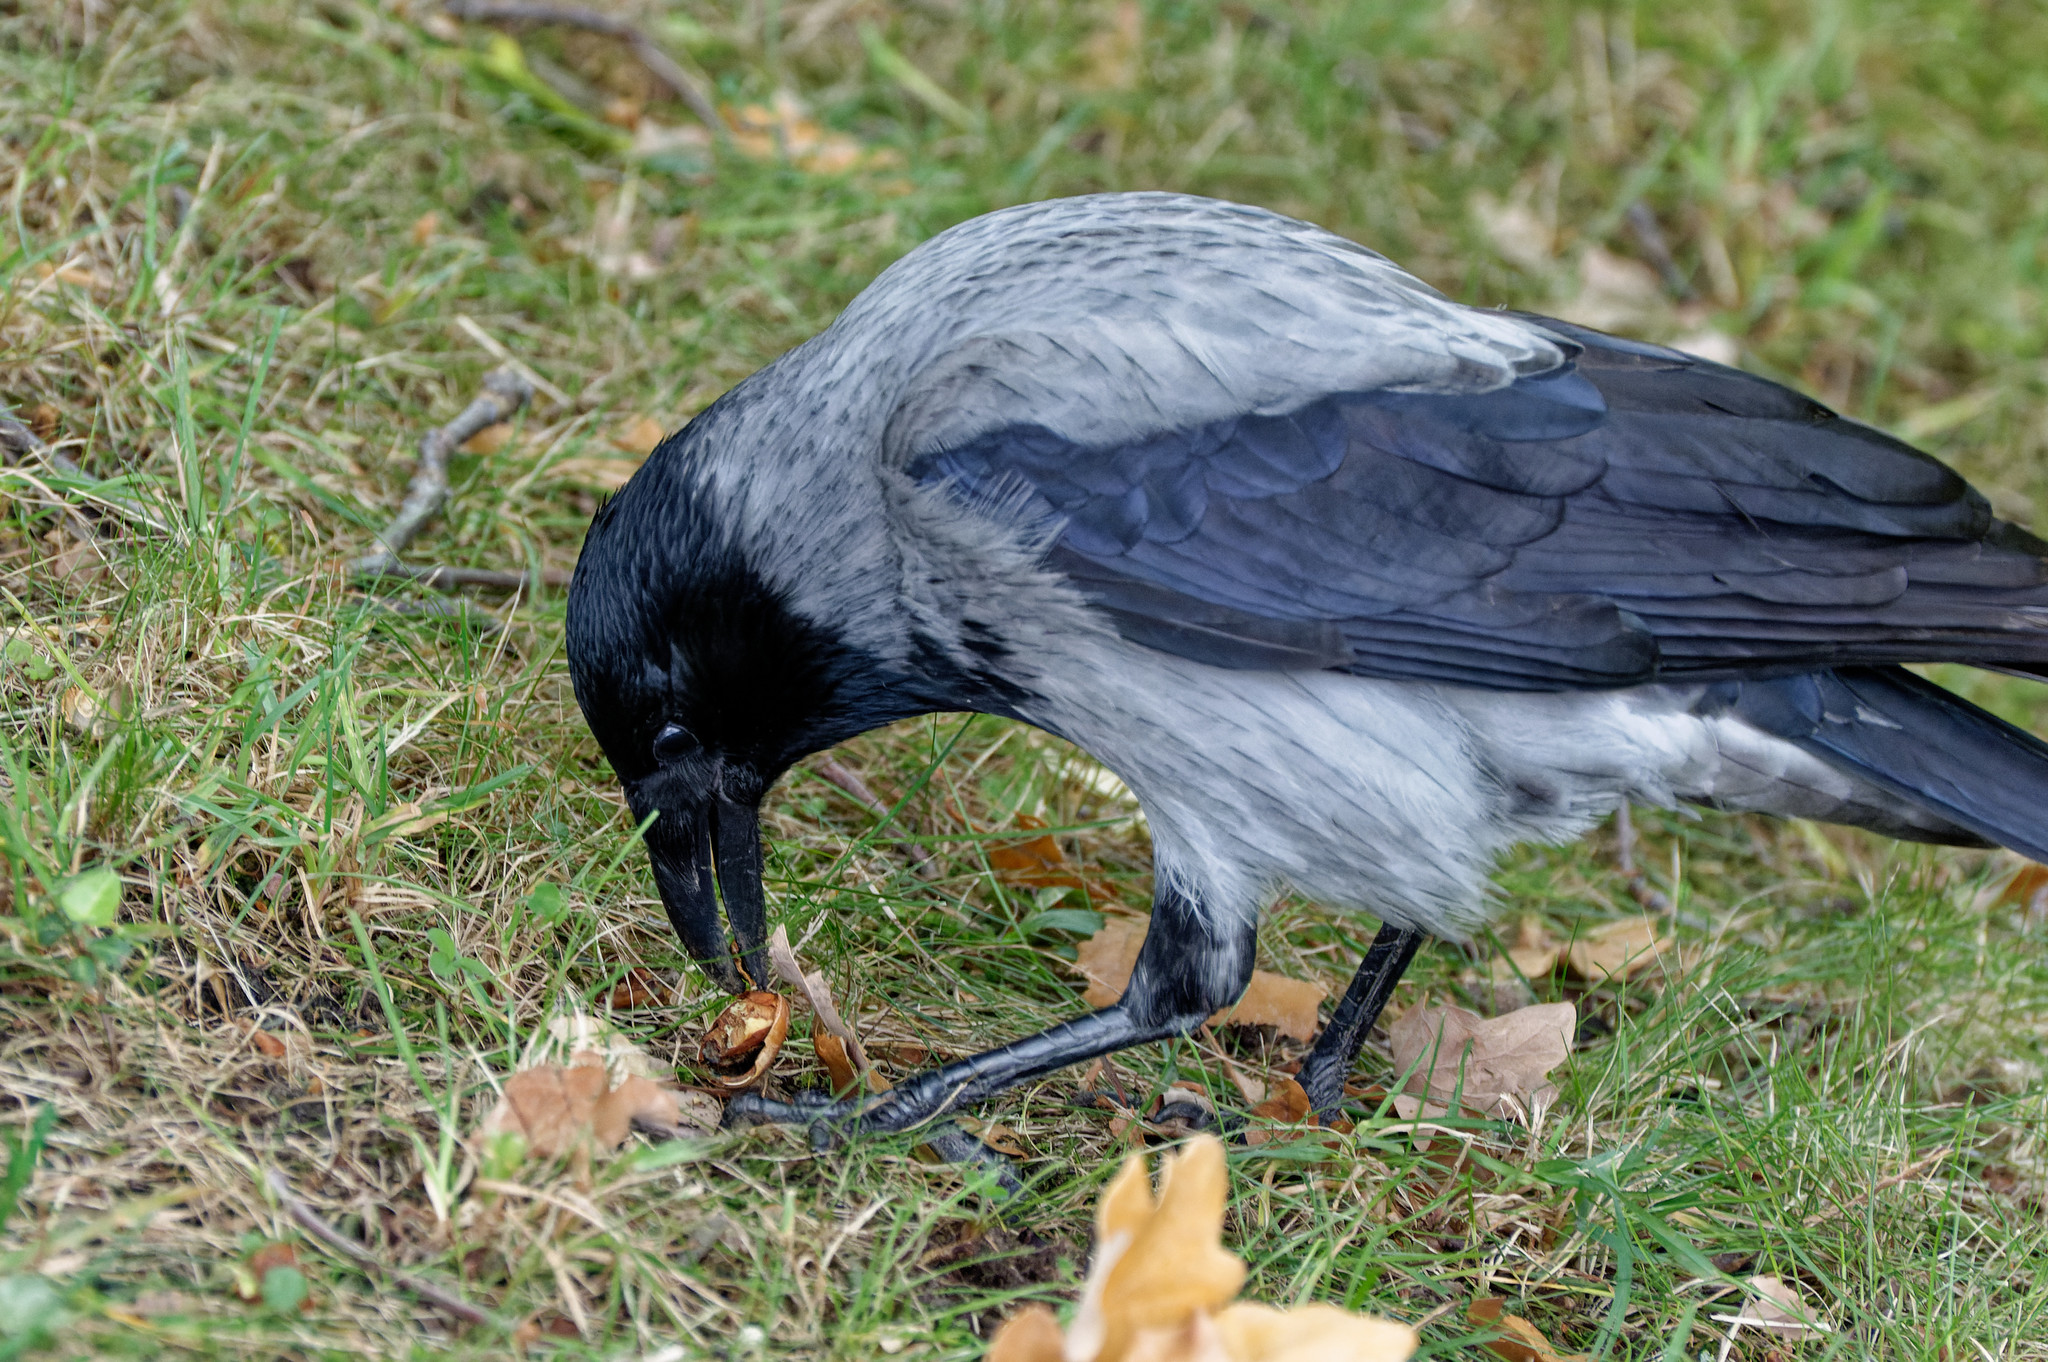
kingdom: Animalia
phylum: Chordata
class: Aves
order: Passeriformes
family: Corvidae
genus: Corvus
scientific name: Corvus cornix
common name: Hooded crow
